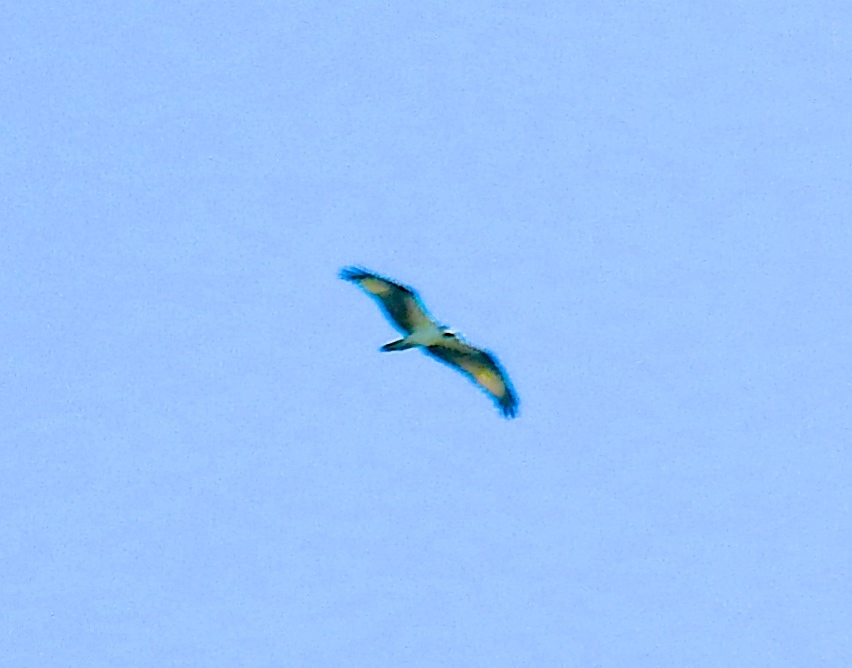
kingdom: Animalia
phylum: Chordata
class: Aves
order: Accipitriformes
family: Pandionidae
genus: Pandion
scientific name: Pandion haliaetus
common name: Osprey
